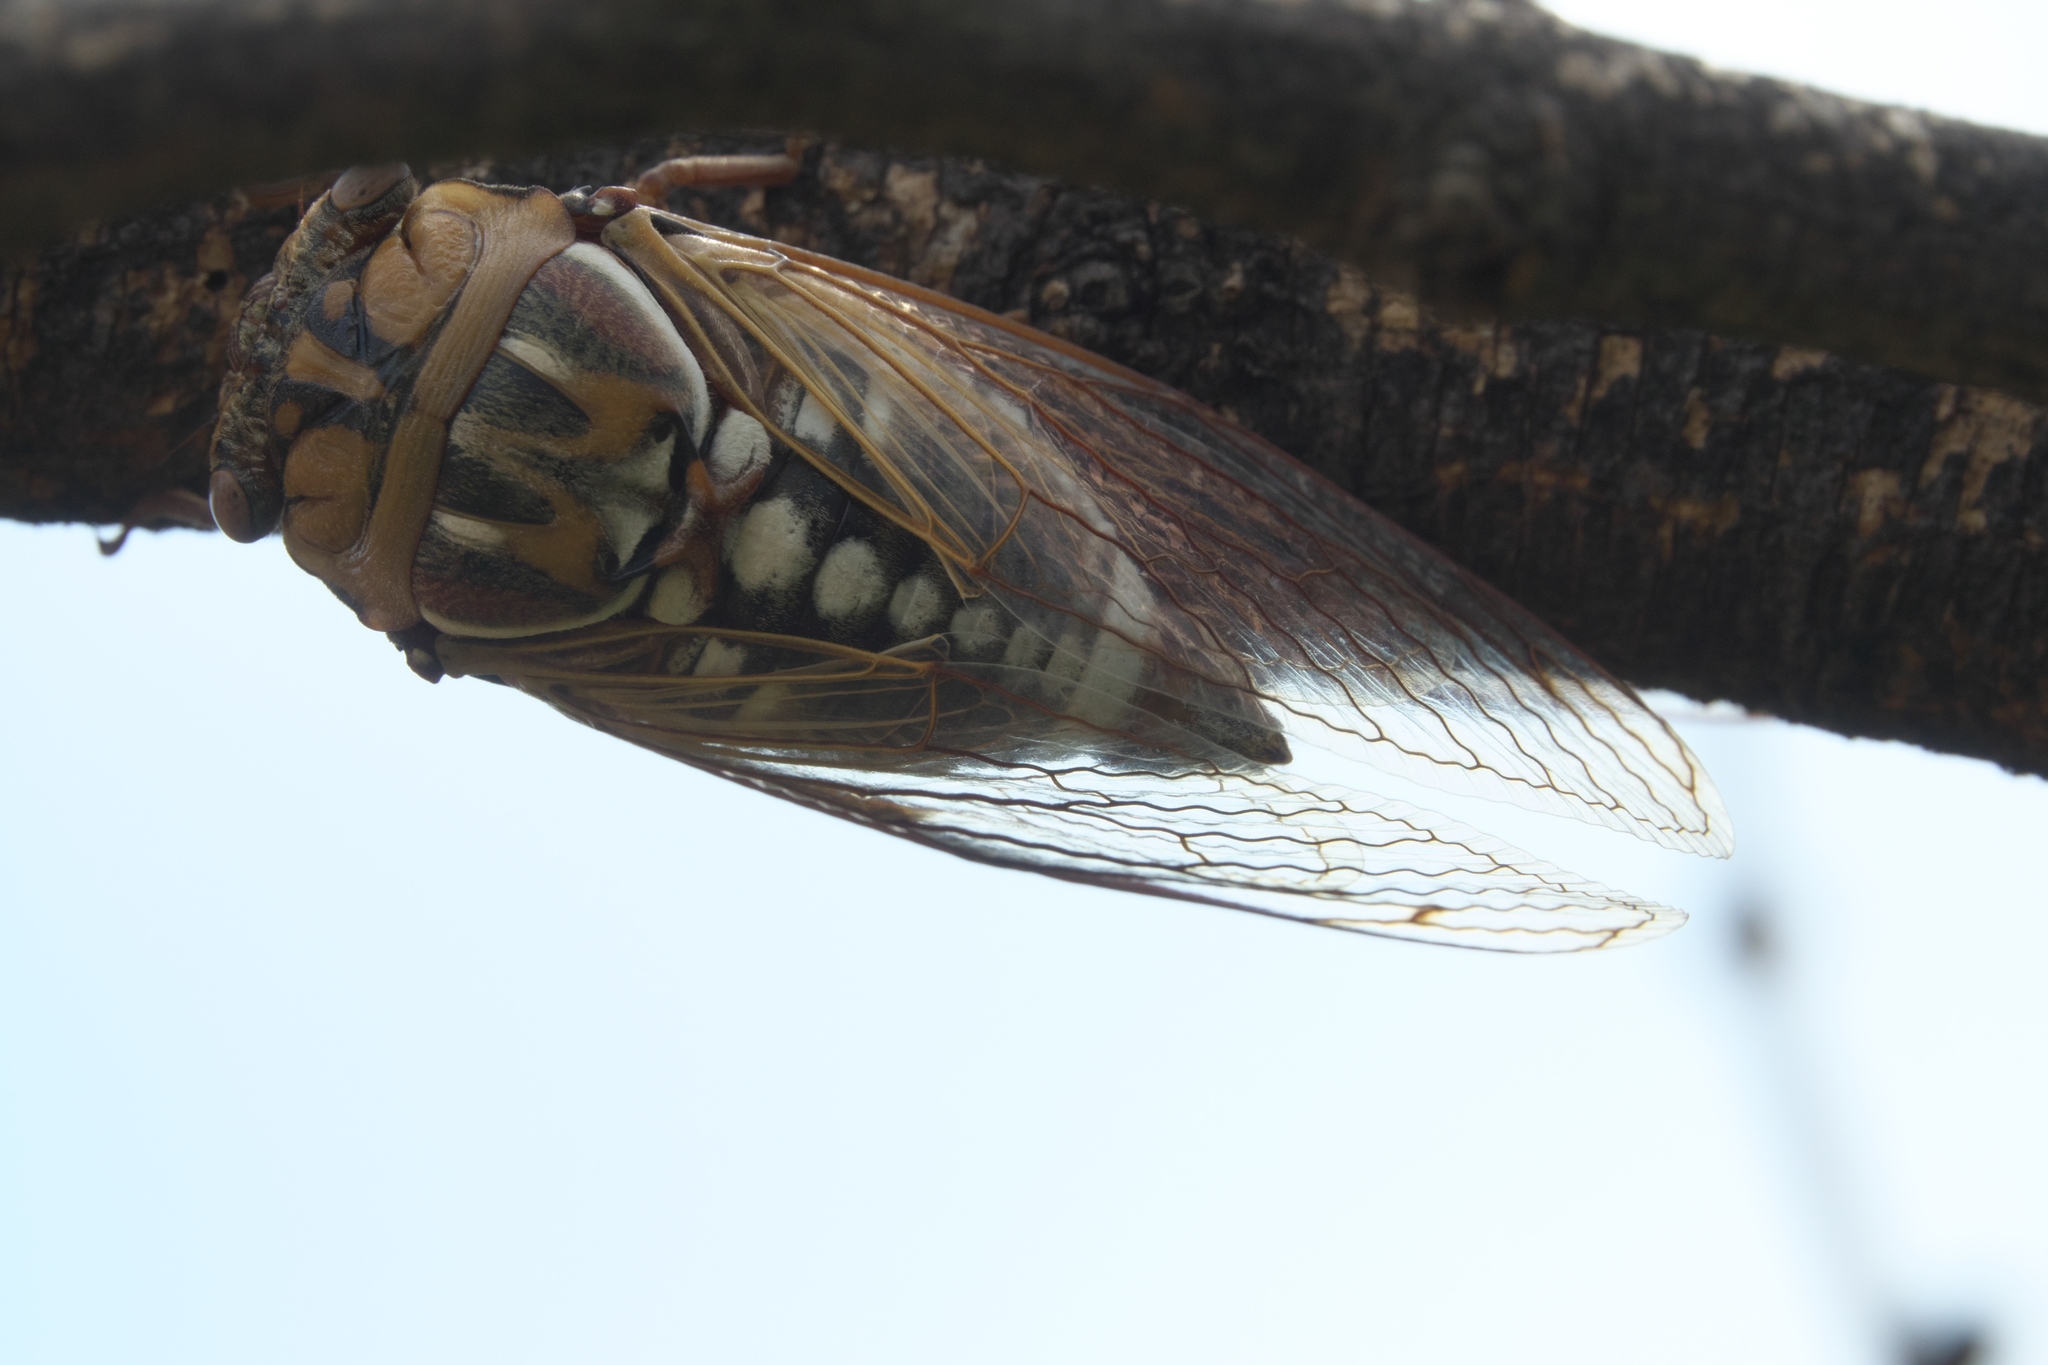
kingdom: Animalia
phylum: Arthropoda
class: Insecta
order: Hemiptera
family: Cicadidae
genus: Megatibicen
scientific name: Megatibicen dorsatus
